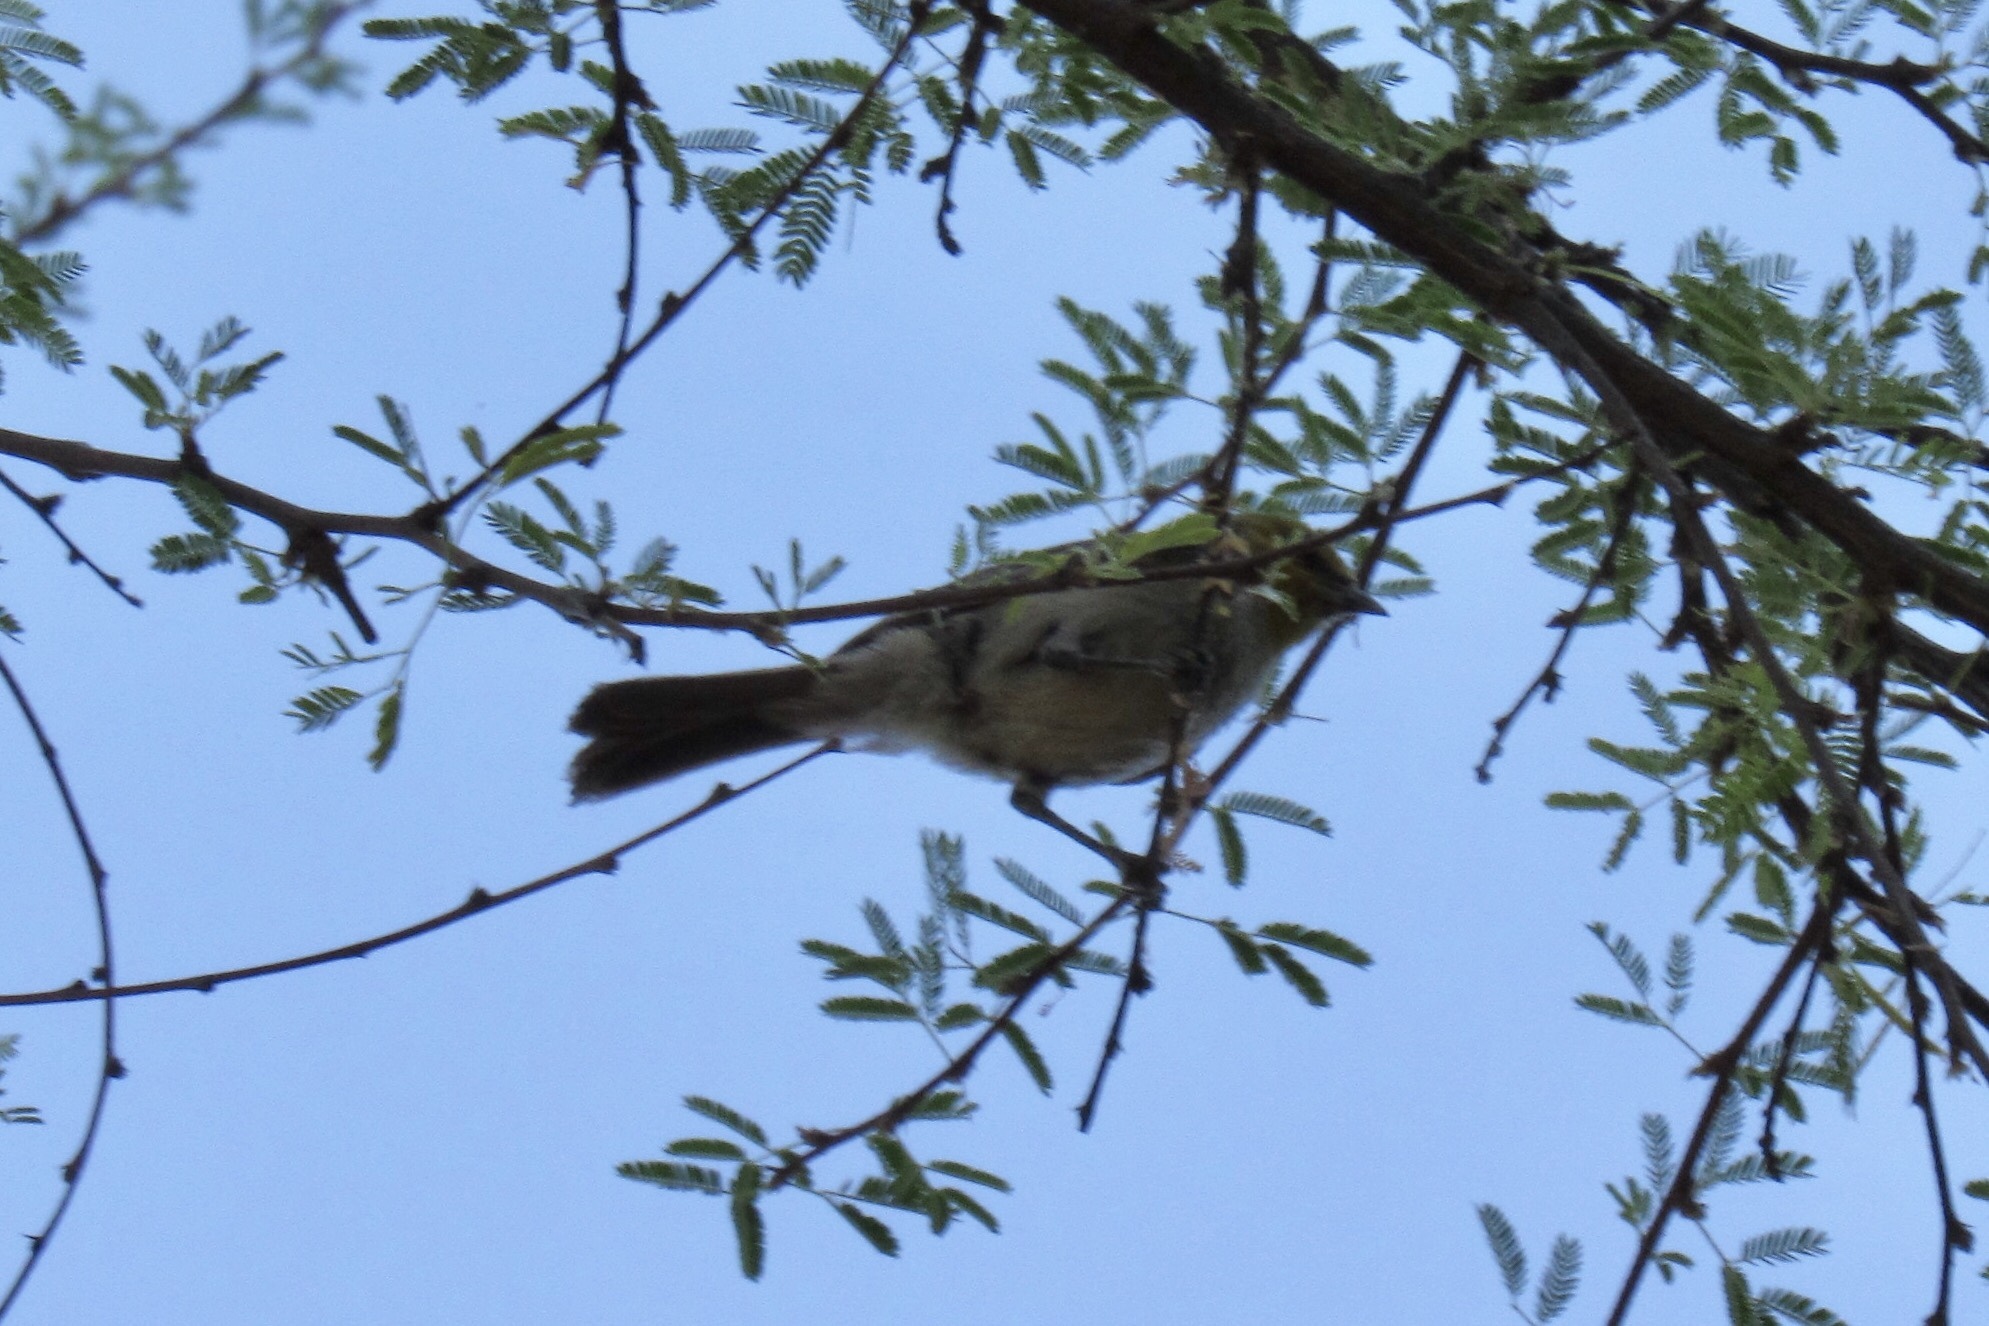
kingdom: Animalia
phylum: Chordata
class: Aves
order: Passeriformes
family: Remizidae
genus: Auriparus
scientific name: Auriparus flaviceps
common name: Verdin
